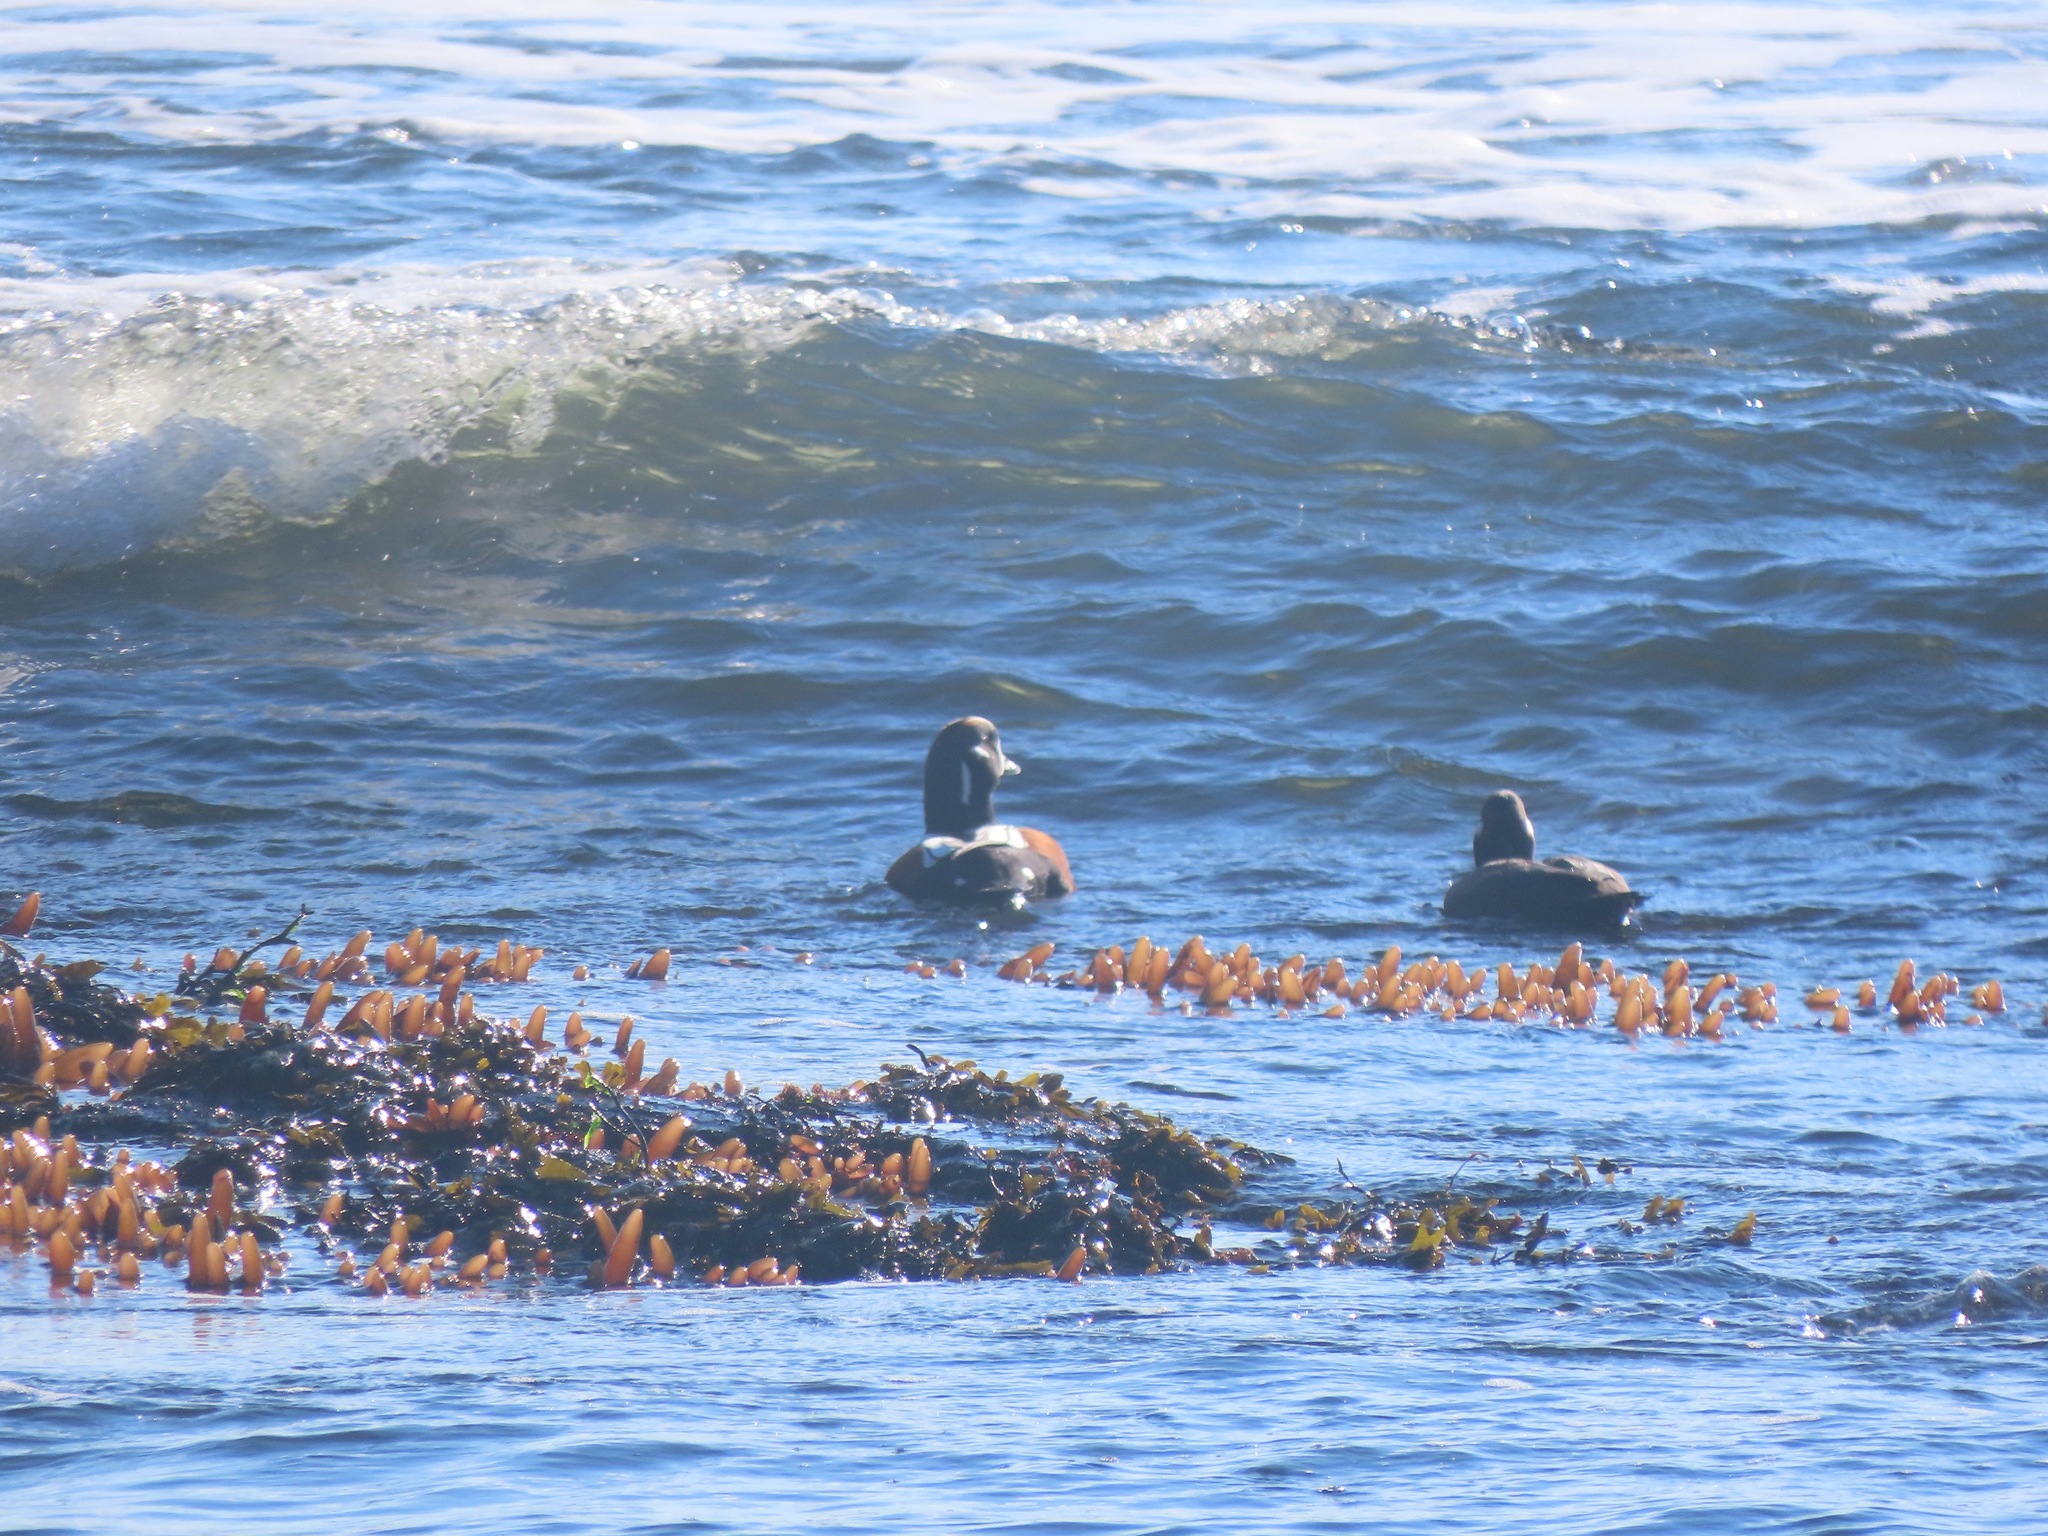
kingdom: Animalia
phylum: Chordata
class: Aves
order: Anseriformes
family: Anatidae
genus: Histrionicus
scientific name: Histrionicus histrionicus
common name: Harlequin duck
